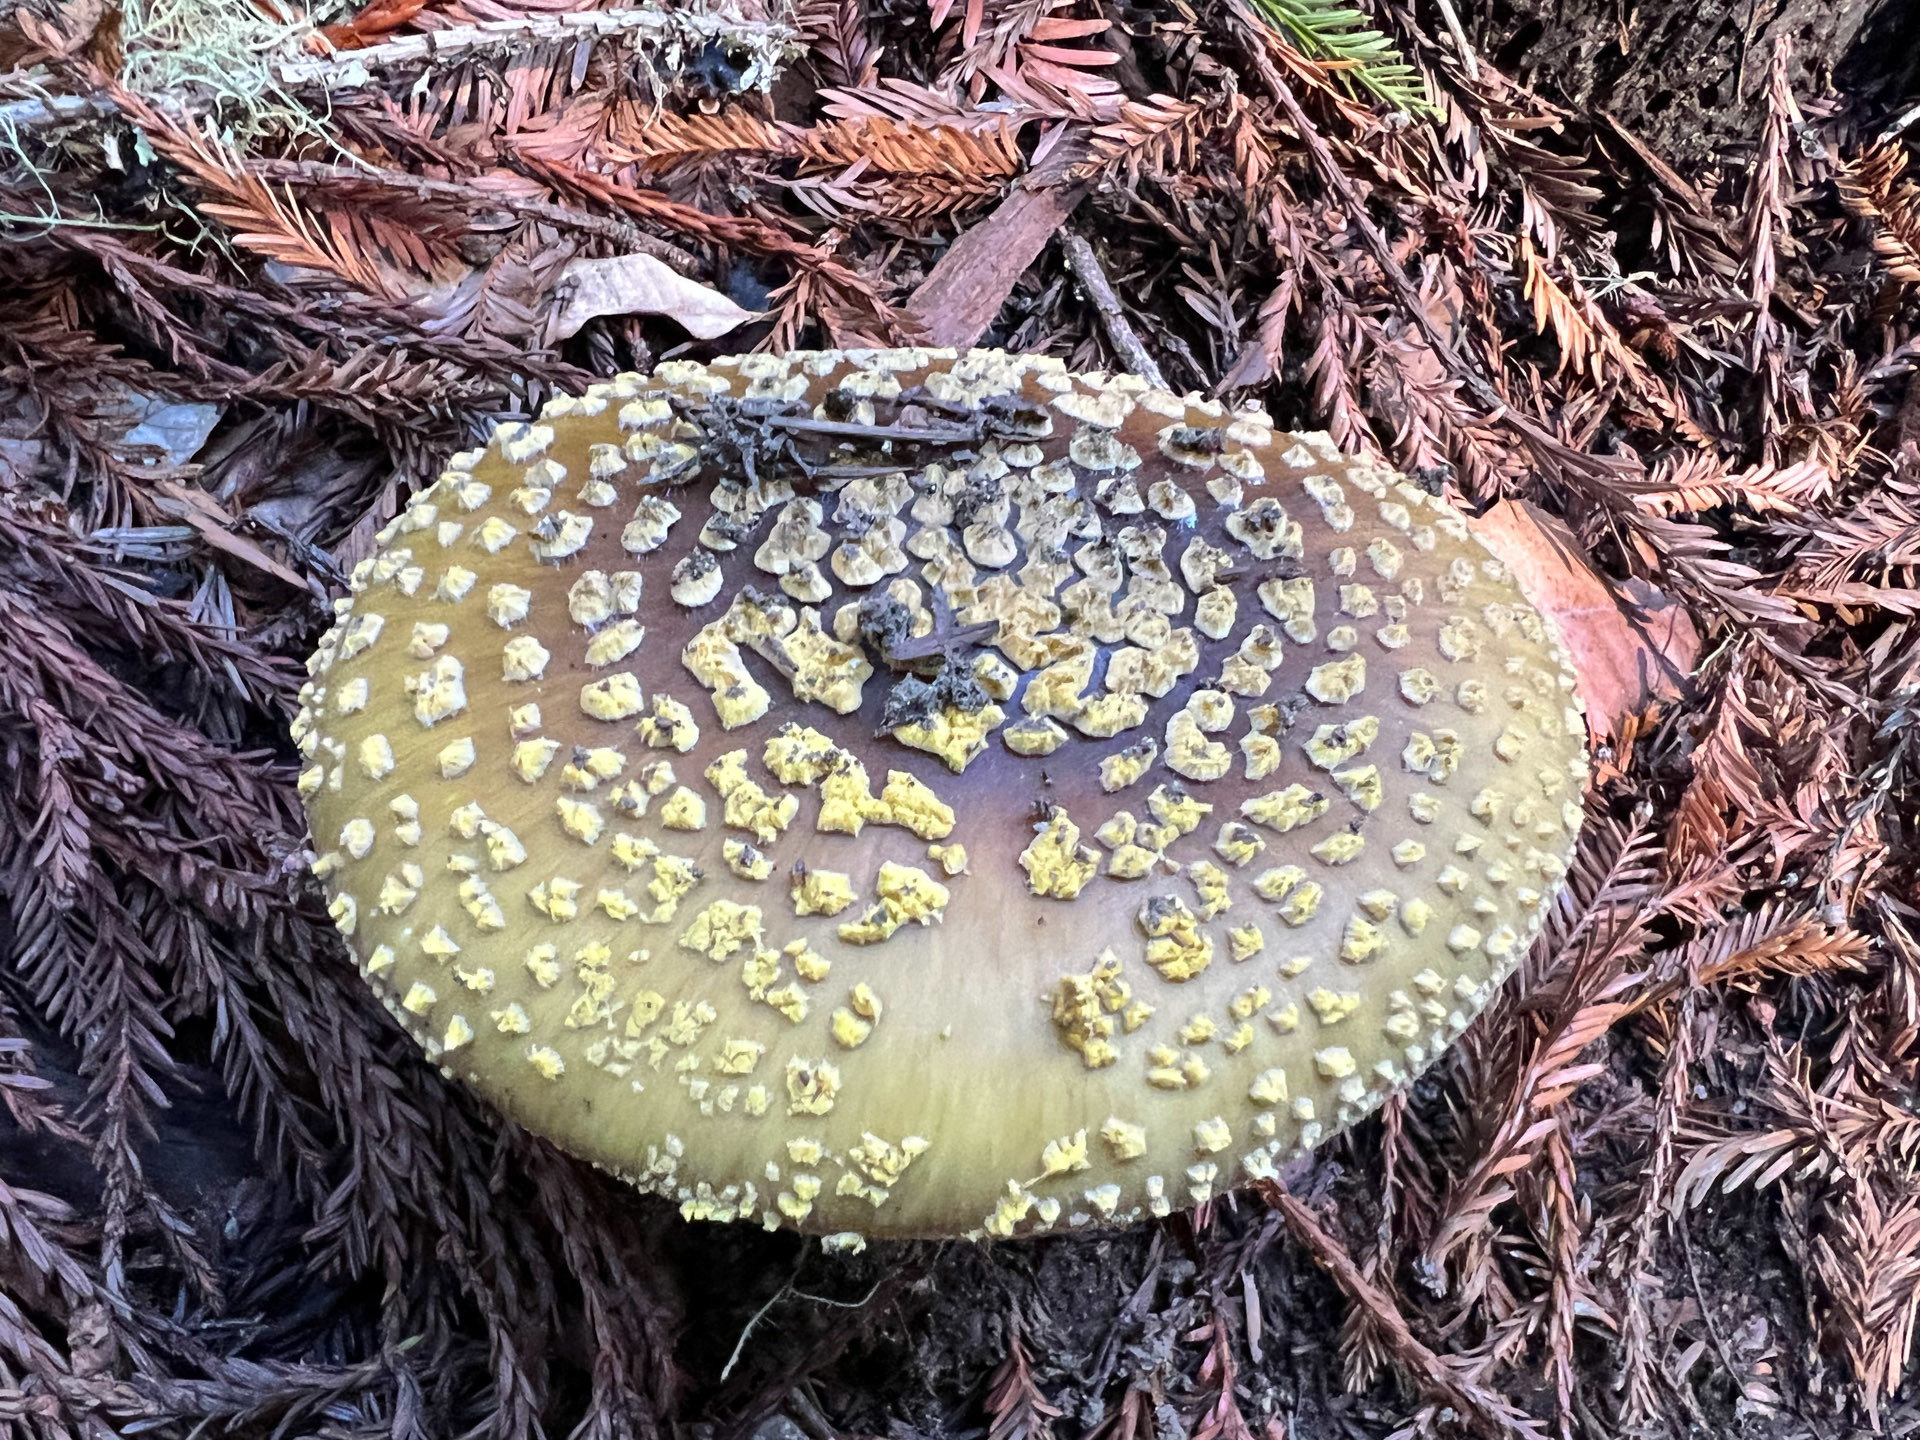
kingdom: Fungi
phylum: Basidiomycota
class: Agaricomycetes
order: Agaricales
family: Amanitaceae
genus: Amanita
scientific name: Amanita augusta
